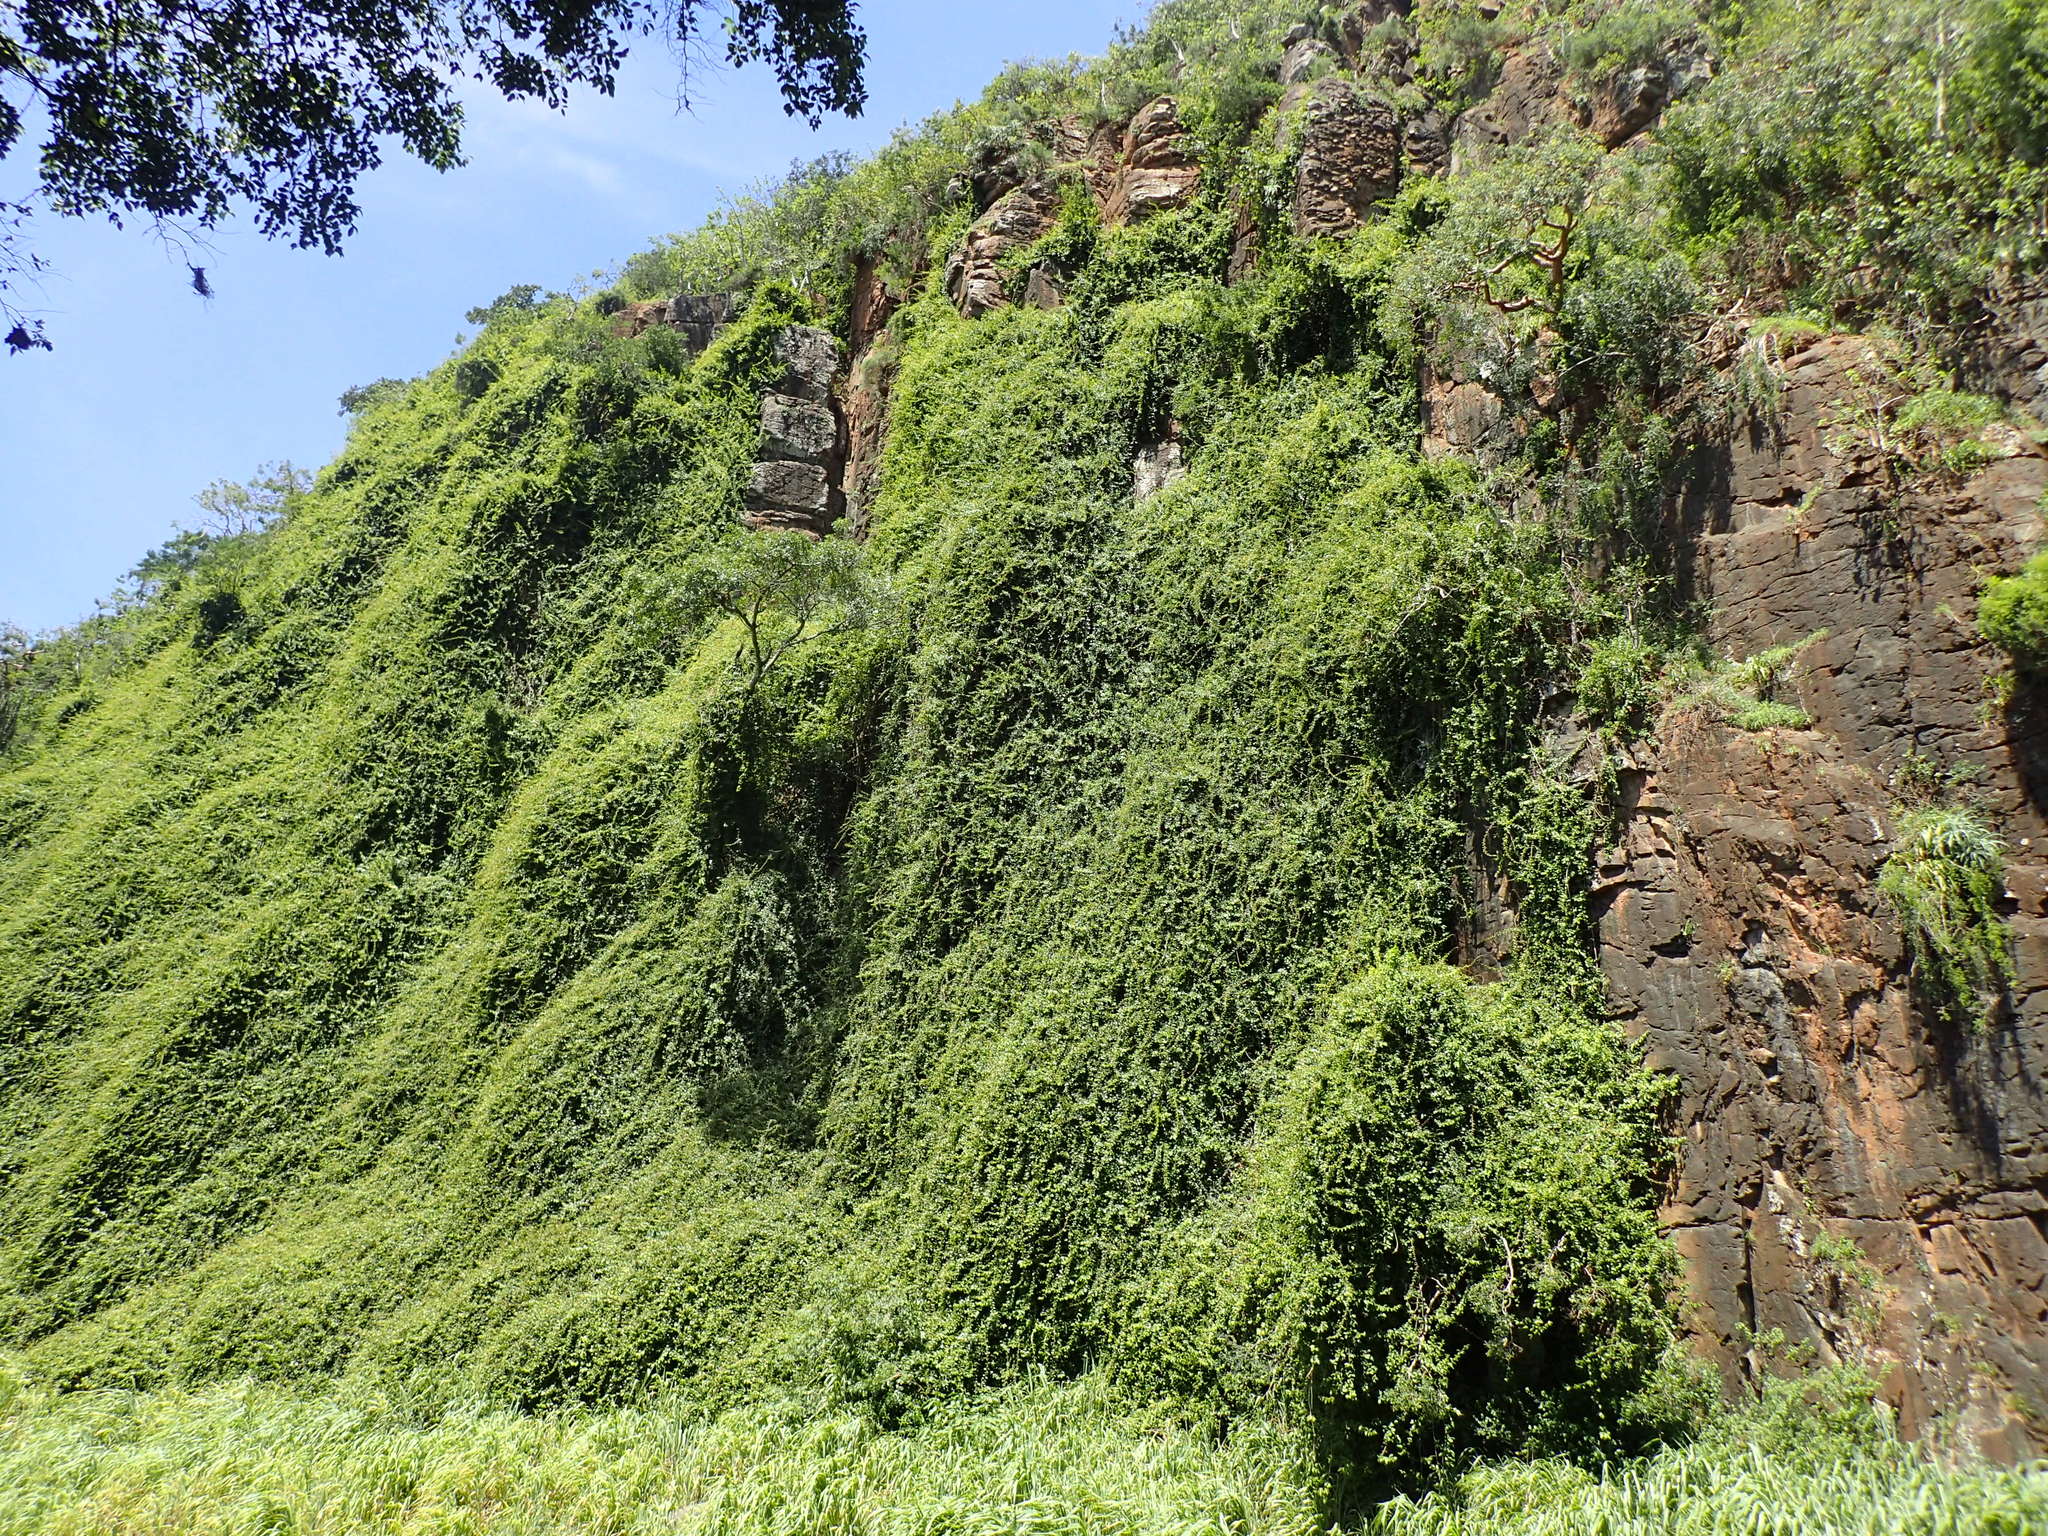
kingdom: Plantae
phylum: Tracheophyta
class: Magnoliopsida
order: Caryophyllales
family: Cactaceae
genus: Pereskia
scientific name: Pereskia aculeata
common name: Barbados gooseberry
